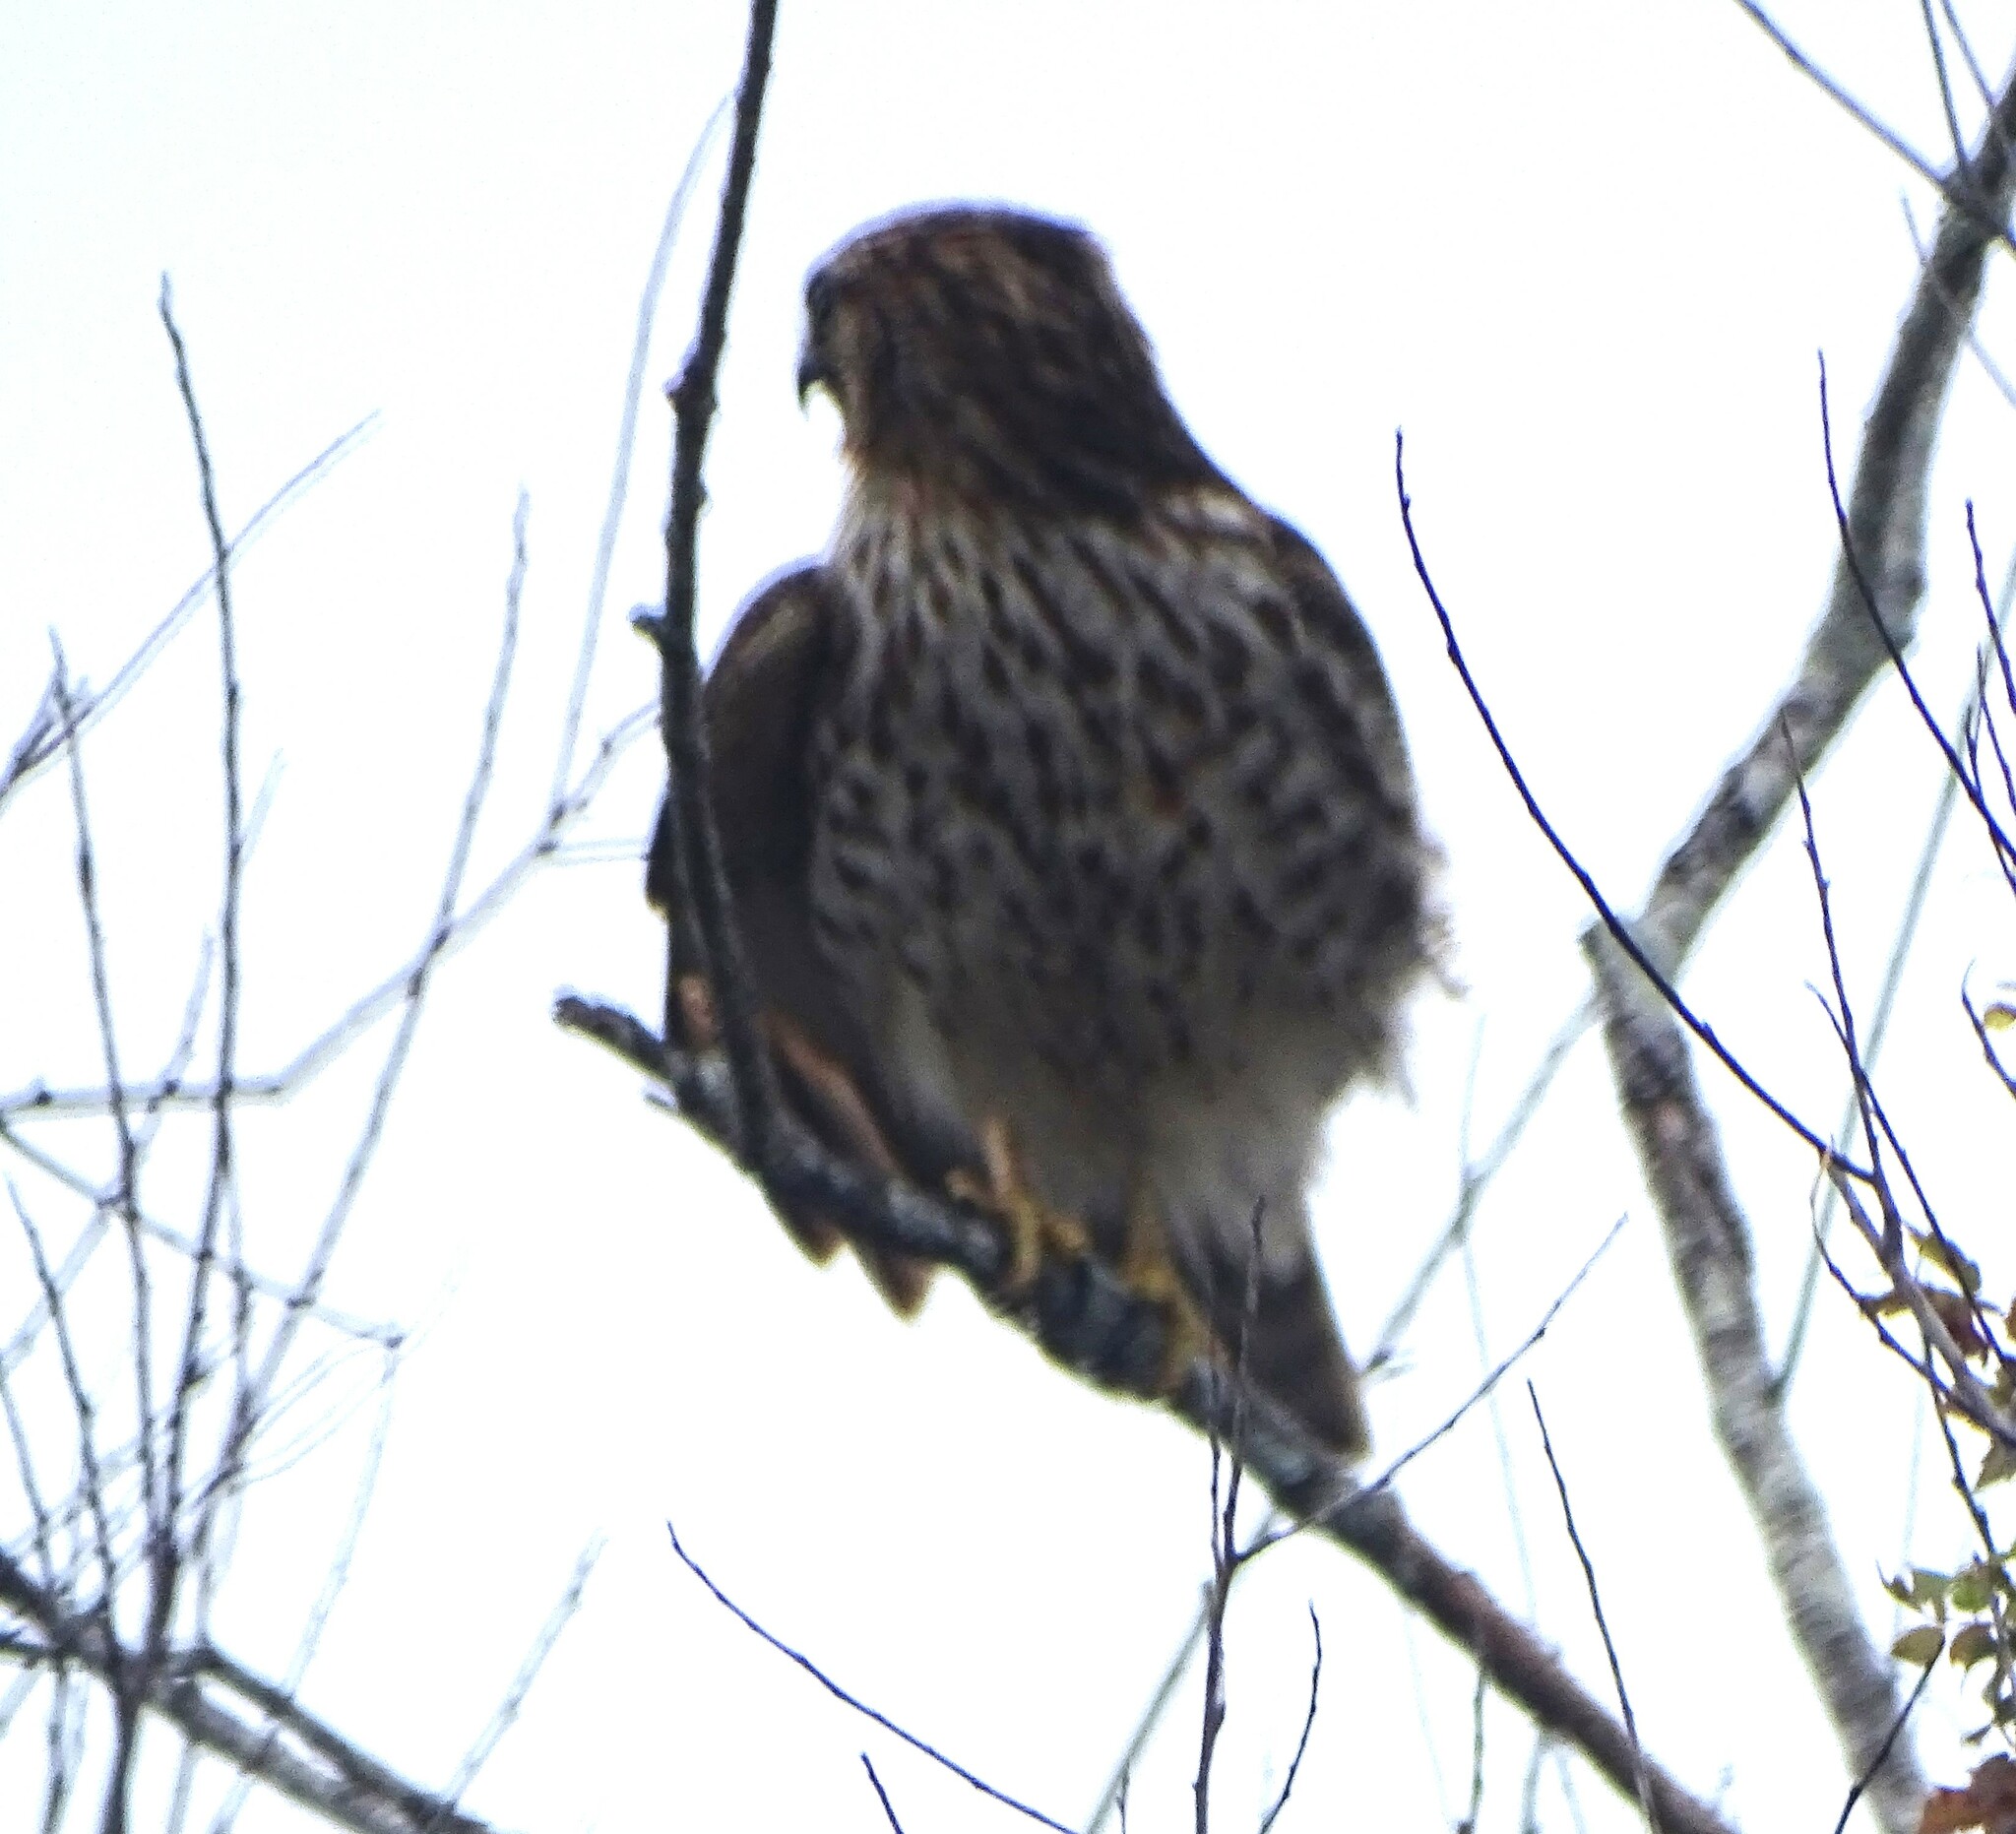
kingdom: Animalia
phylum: Chordata
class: Aves
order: Accipitriformes
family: Accipitridae
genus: Buteo
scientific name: Buteo lineatus
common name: Red-shouldered hawk
